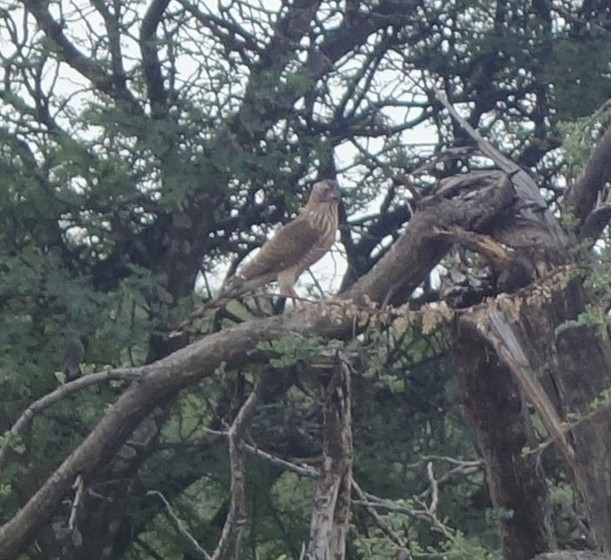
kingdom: Animalia
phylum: Chordata
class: Aves
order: Accipitriformes
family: Accipitridae
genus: Micronisus
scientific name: Micronisus gabar
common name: Gabar goshawk
